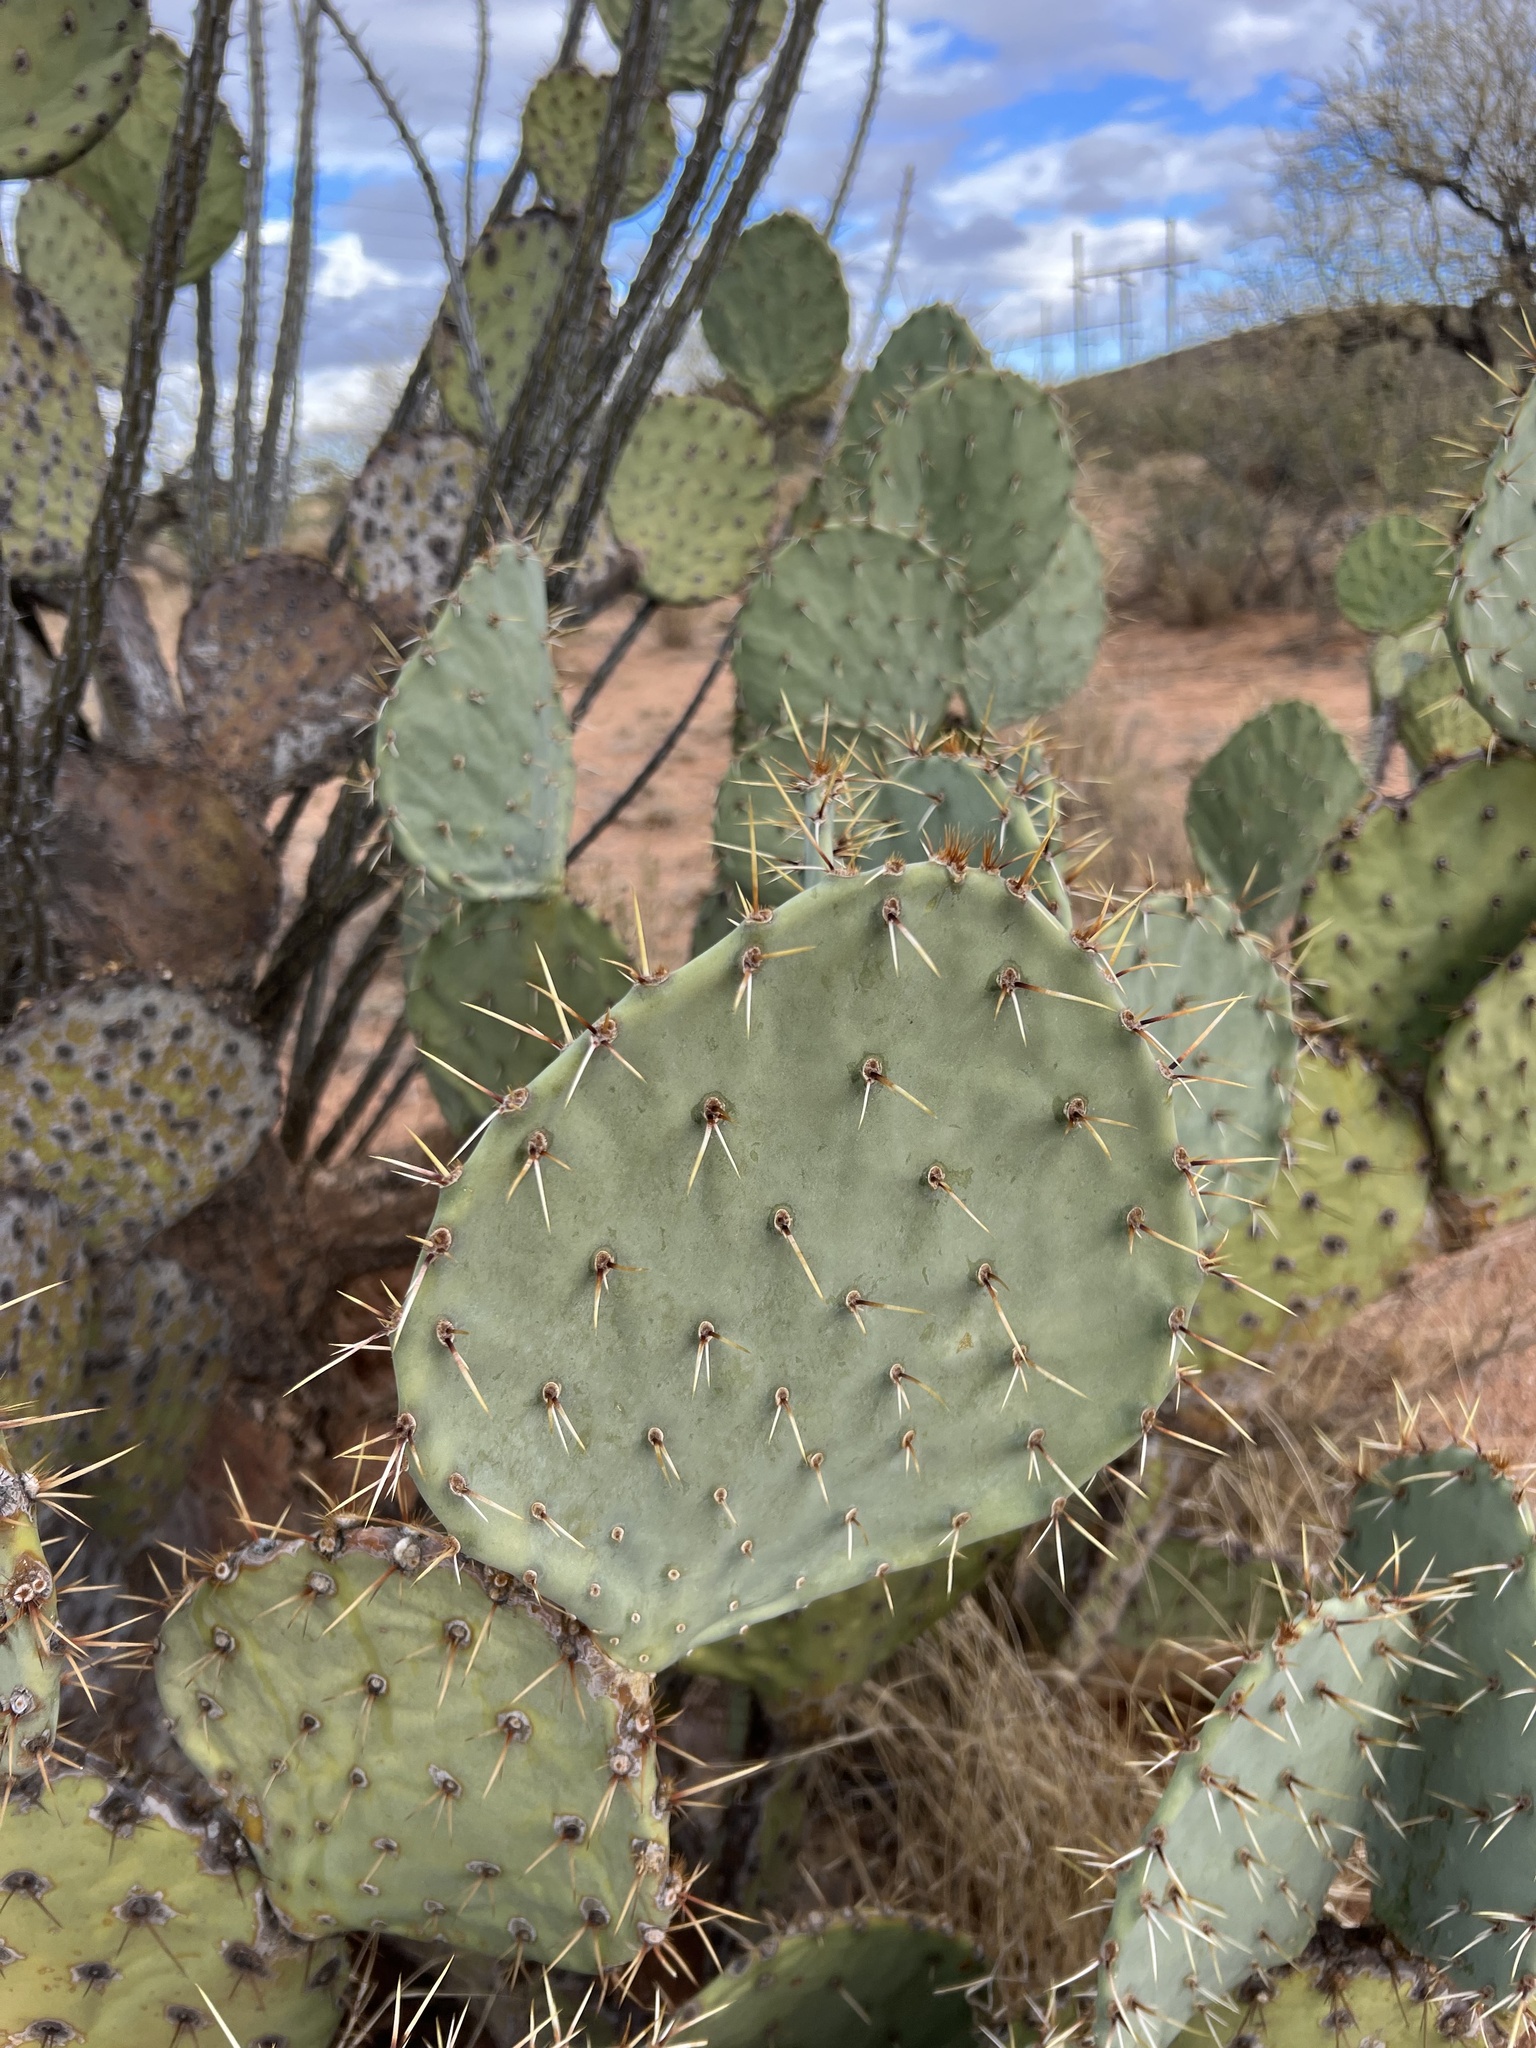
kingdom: Plantae
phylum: Tracheophyta
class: Magnoliopsida
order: Caryophyllales
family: Cactaceae
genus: Opuntia
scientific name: Opuntia engelmannii
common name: Cactus-apple
